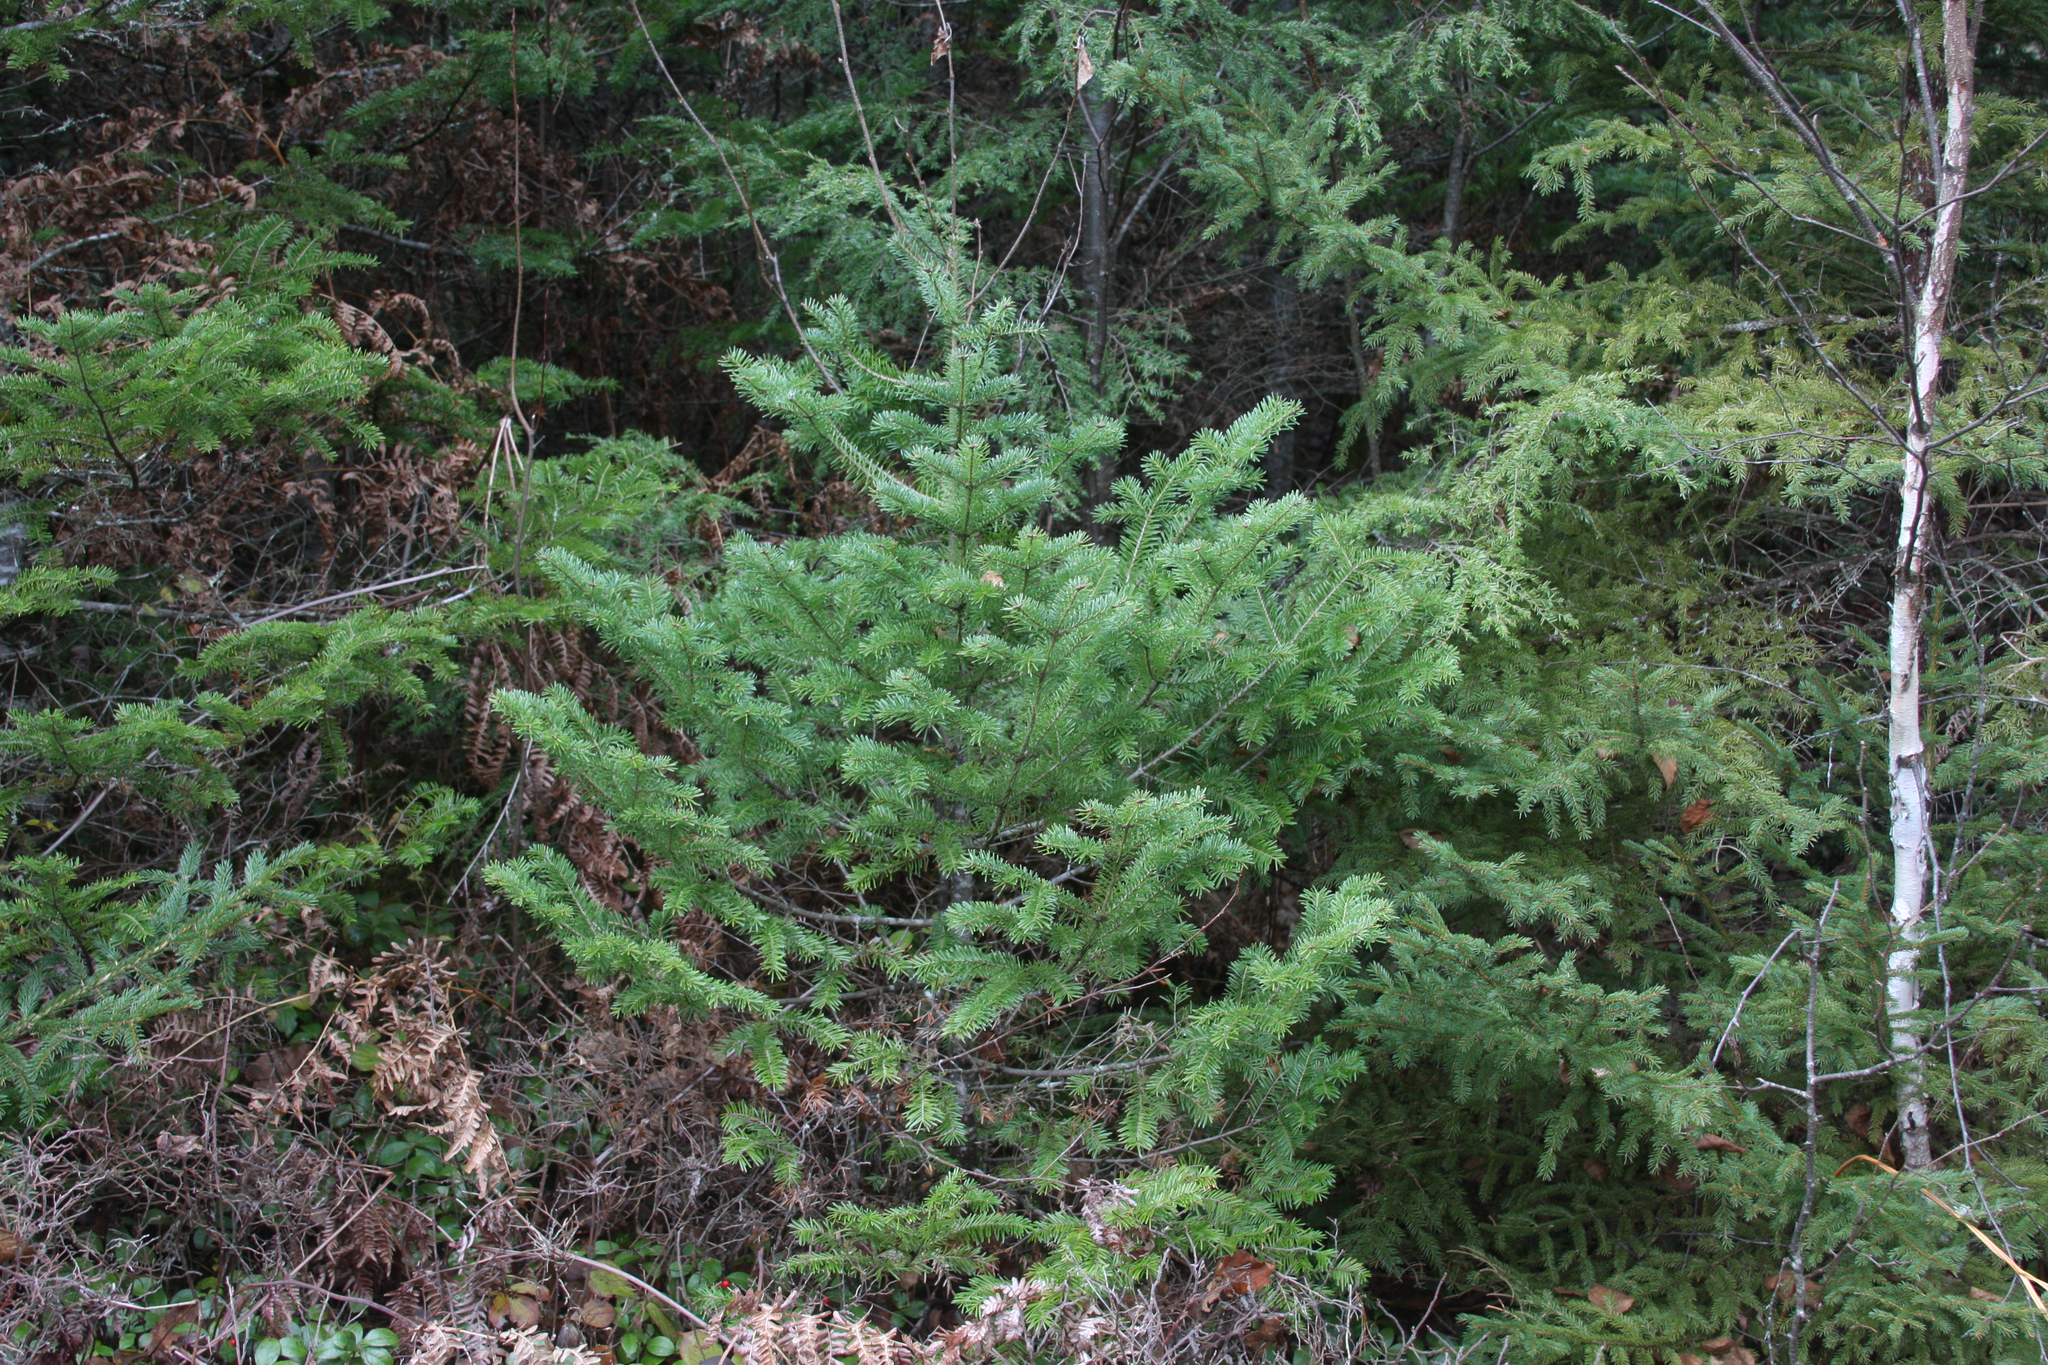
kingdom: Plantae
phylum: Tracheophyta
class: Pinopsida
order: Pinales
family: Pinaceae
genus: Abies
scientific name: Abies balsamea
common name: Balsam fir
